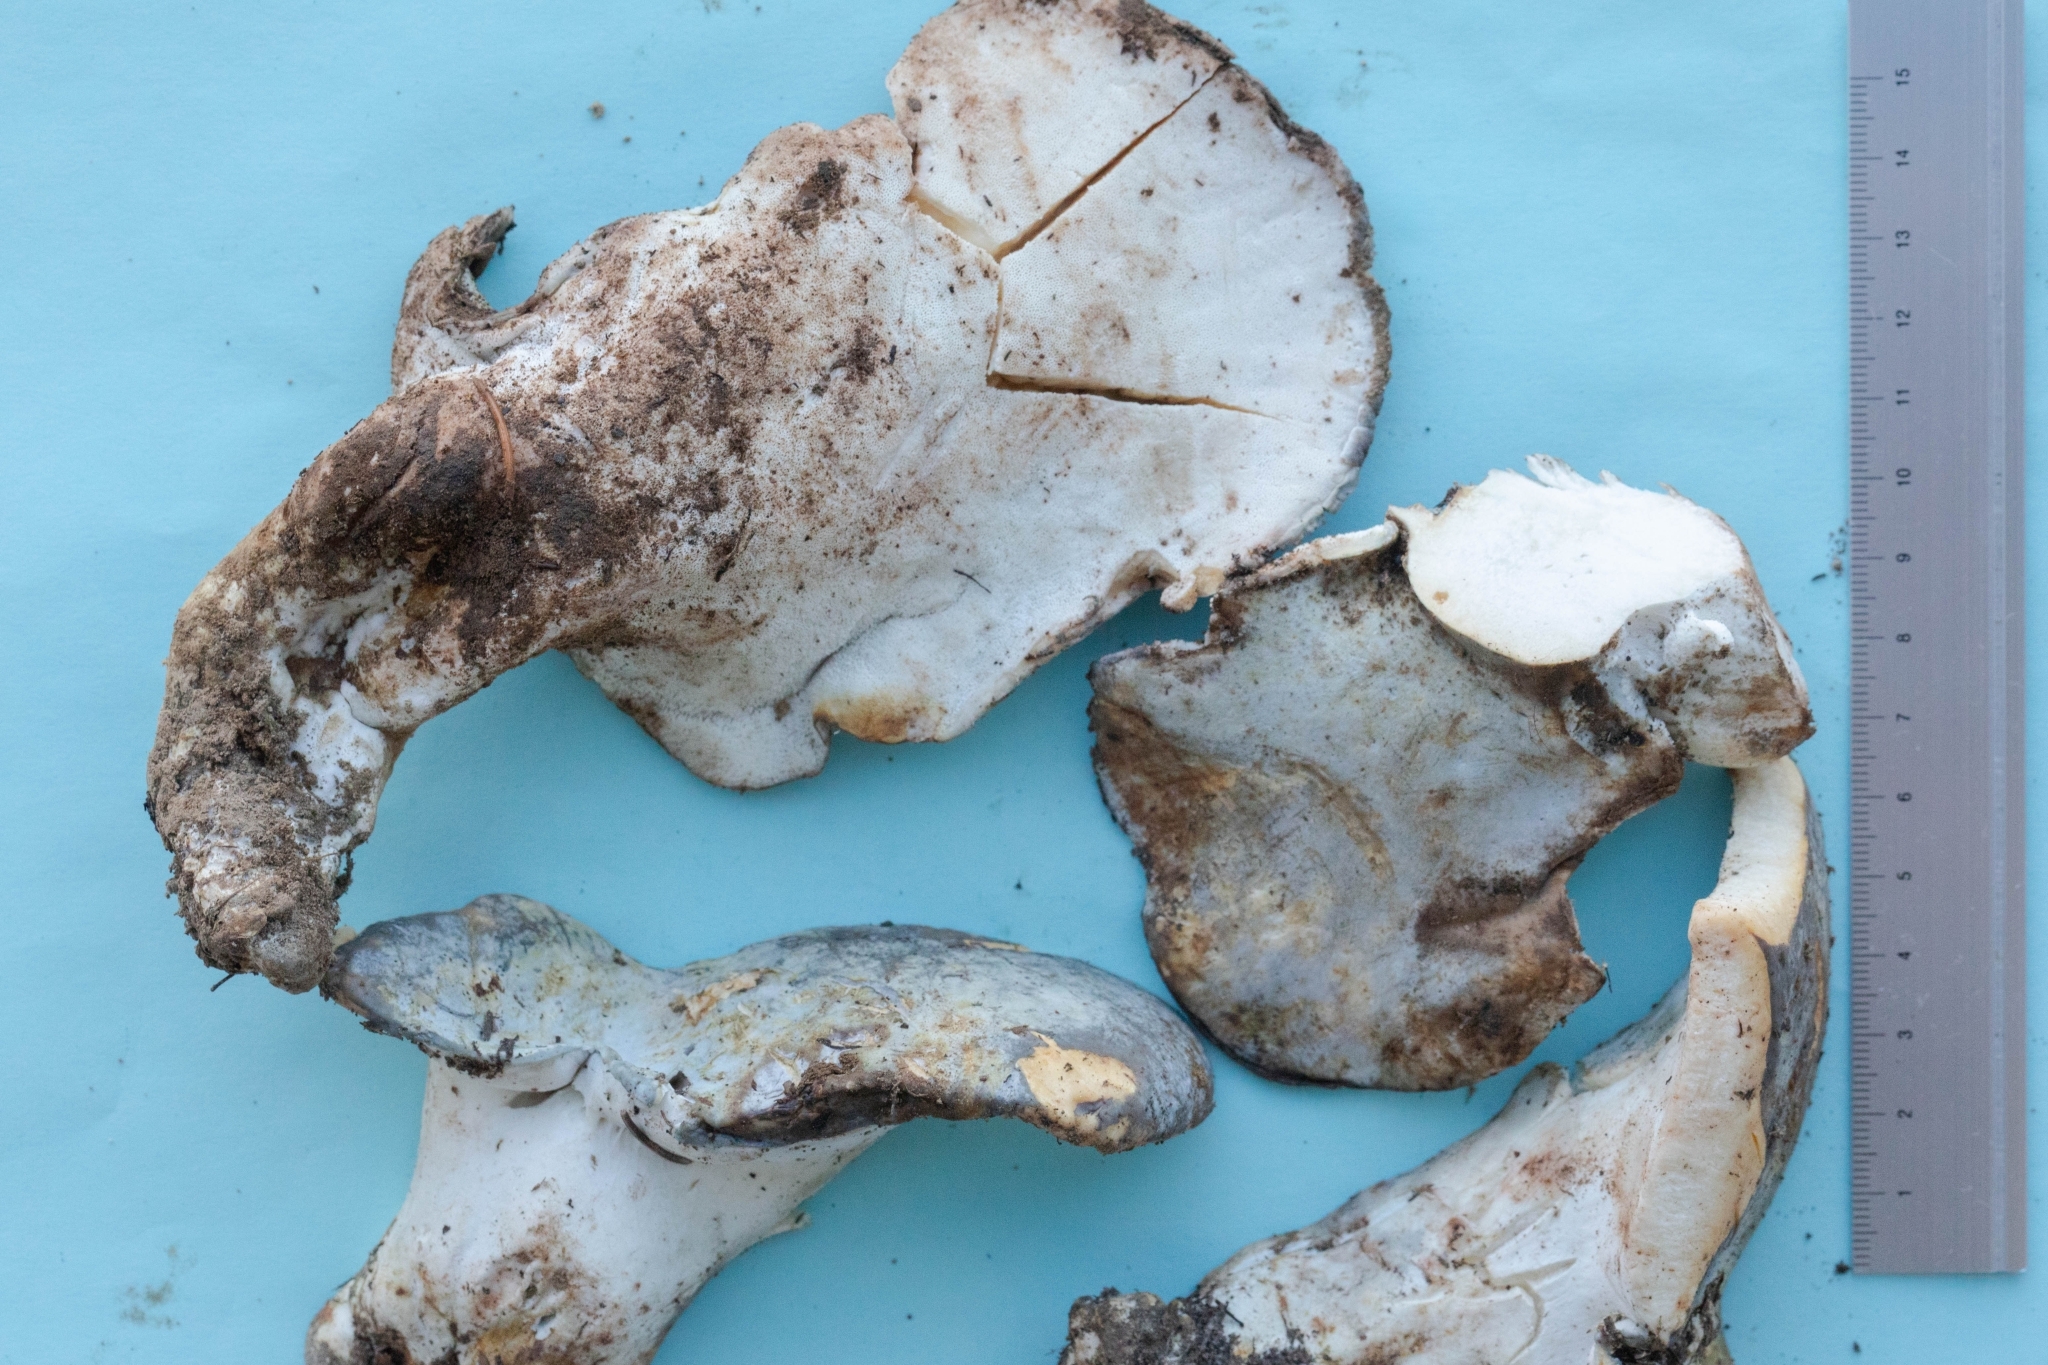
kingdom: Fungi
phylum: Basidiomycota
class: Agaricomycetes
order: Russulales
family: Albatrellaceae
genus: Albatrellopsis
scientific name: Albatrellopsis flettii
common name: Blue polypore
